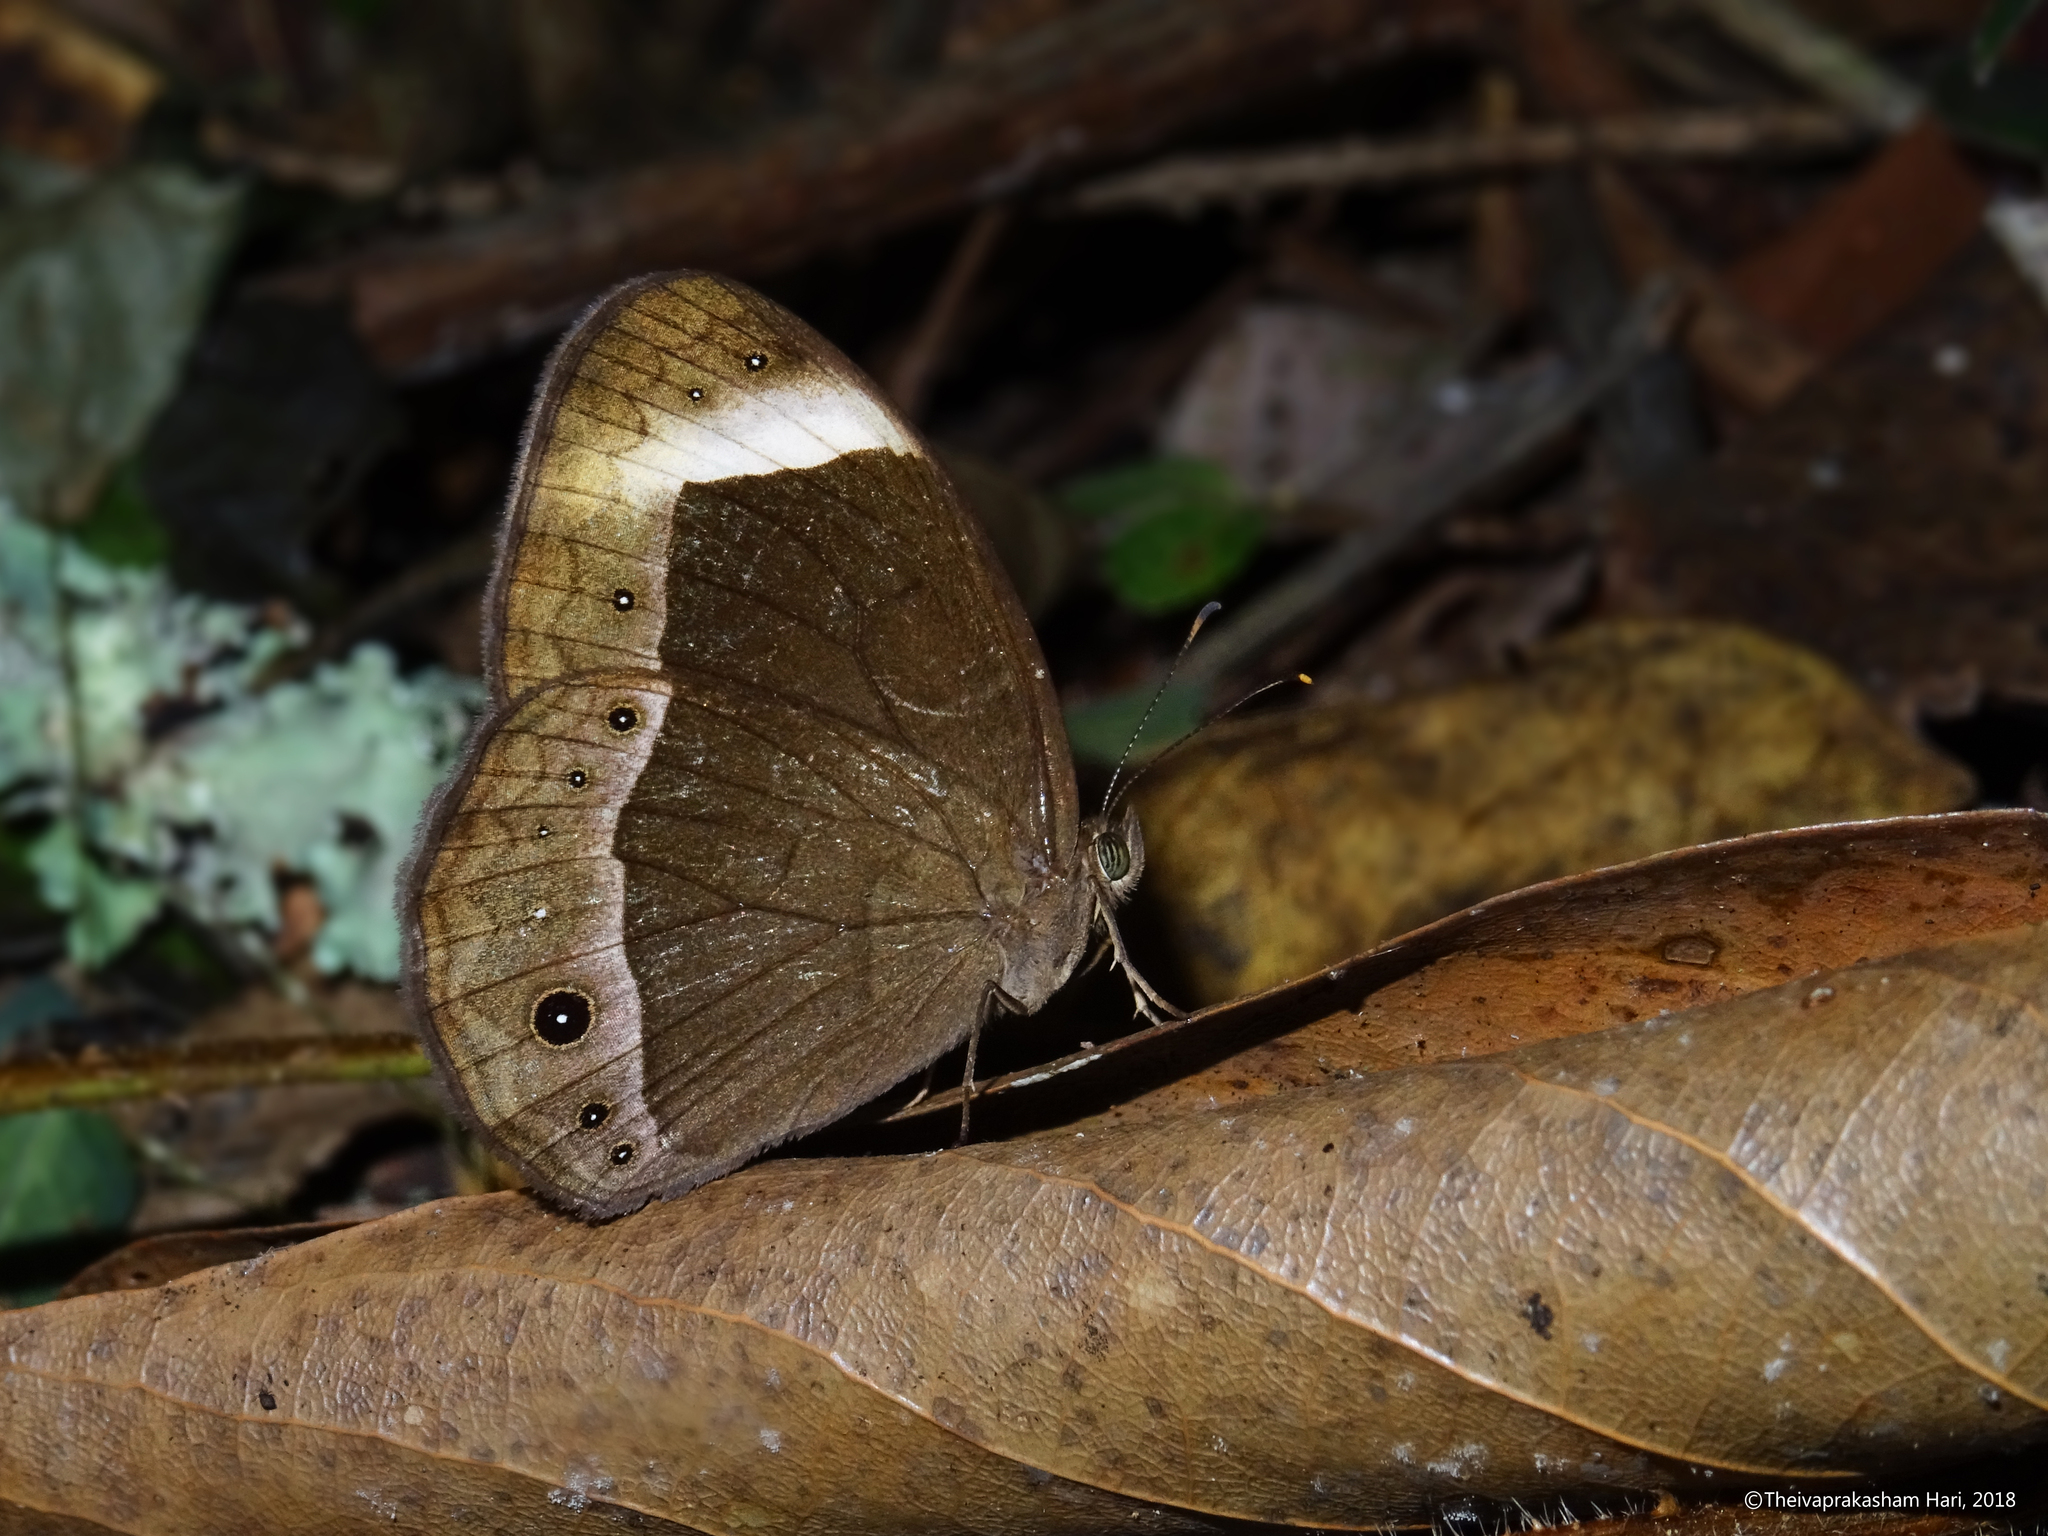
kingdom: Animalia
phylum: Arthropoda
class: Insecta
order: Lepidoptera
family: Nymphalidae
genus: Mycalesis
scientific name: Mycalesis anaxias
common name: White-bar bushbrown
